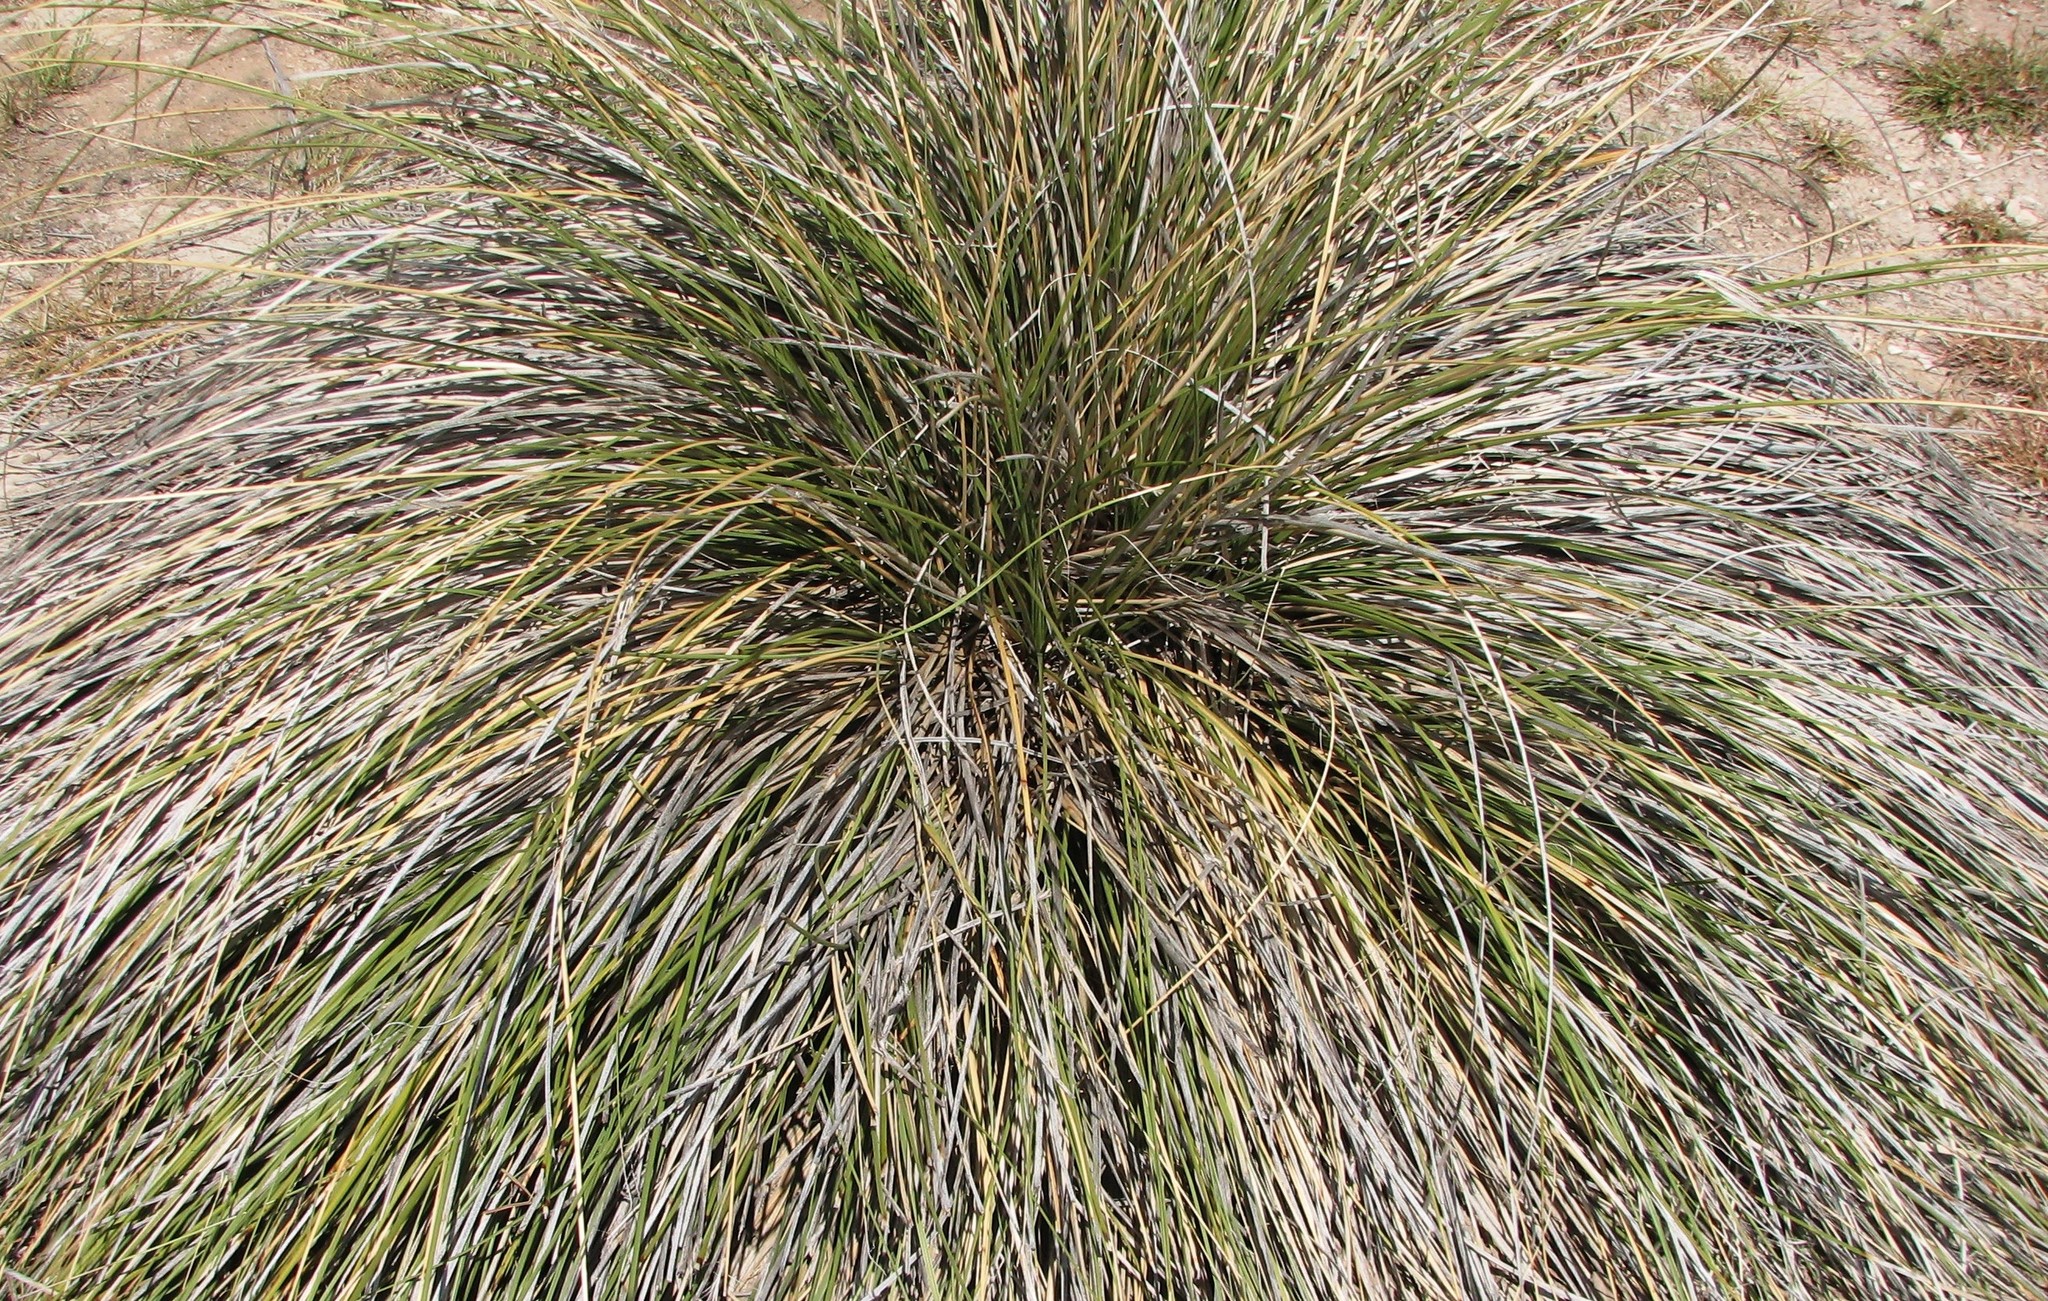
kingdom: Plantae
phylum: Tracheophyta
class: Liliopsida
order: Asparagales
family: Asparagaceae
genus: Nolina
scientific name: Nolina texana
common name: Texas sacahuiste
